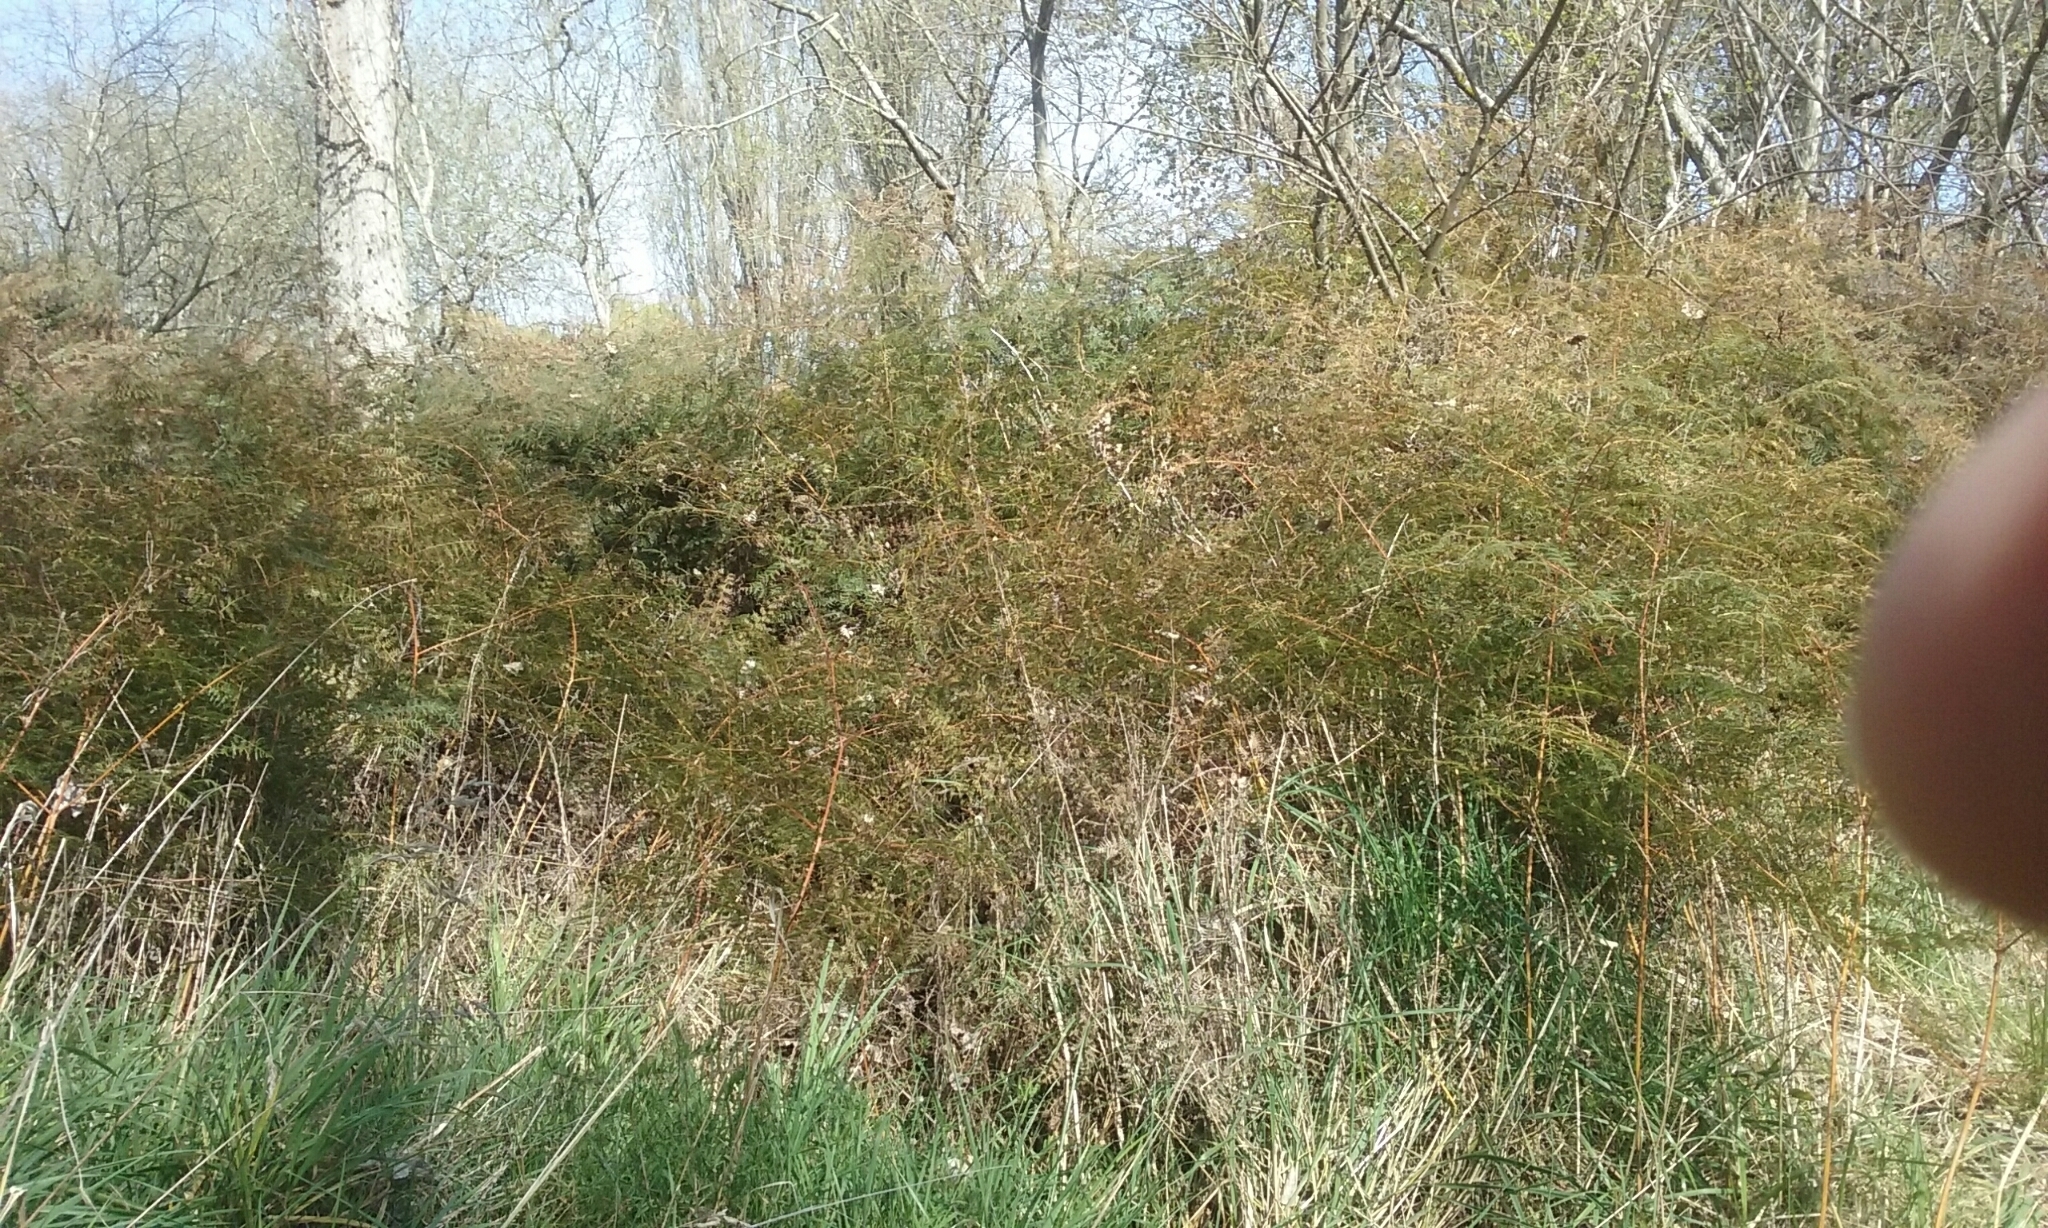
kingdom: Plantae
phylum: Tracheophyta
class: Polypodiopsida
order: Polypodiales
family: Dennstaedtiaceae
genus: Pteridium
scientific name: Pteridium esculentum
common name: Bracken fern
